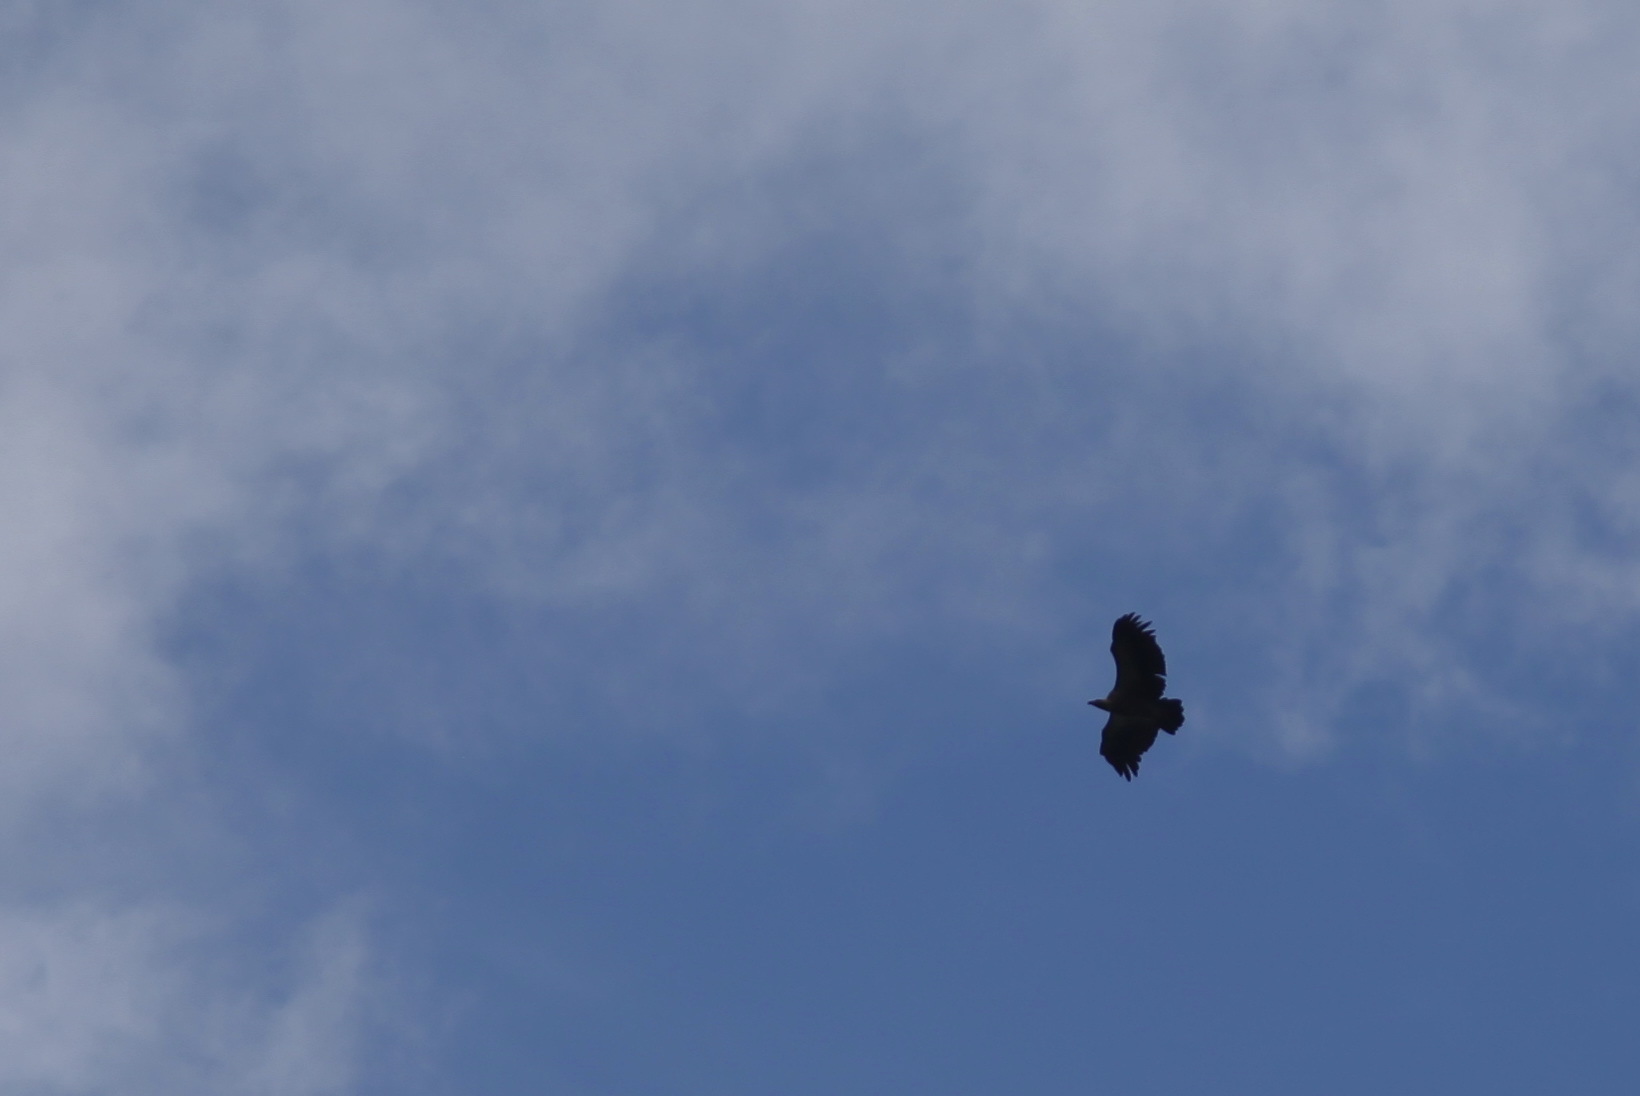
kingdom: Animalia
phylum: Chordata
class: Aves
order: Accipitriformes
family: Accipitridae
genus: Gyps
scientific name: Gyps africanus
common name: White-backed vulture
